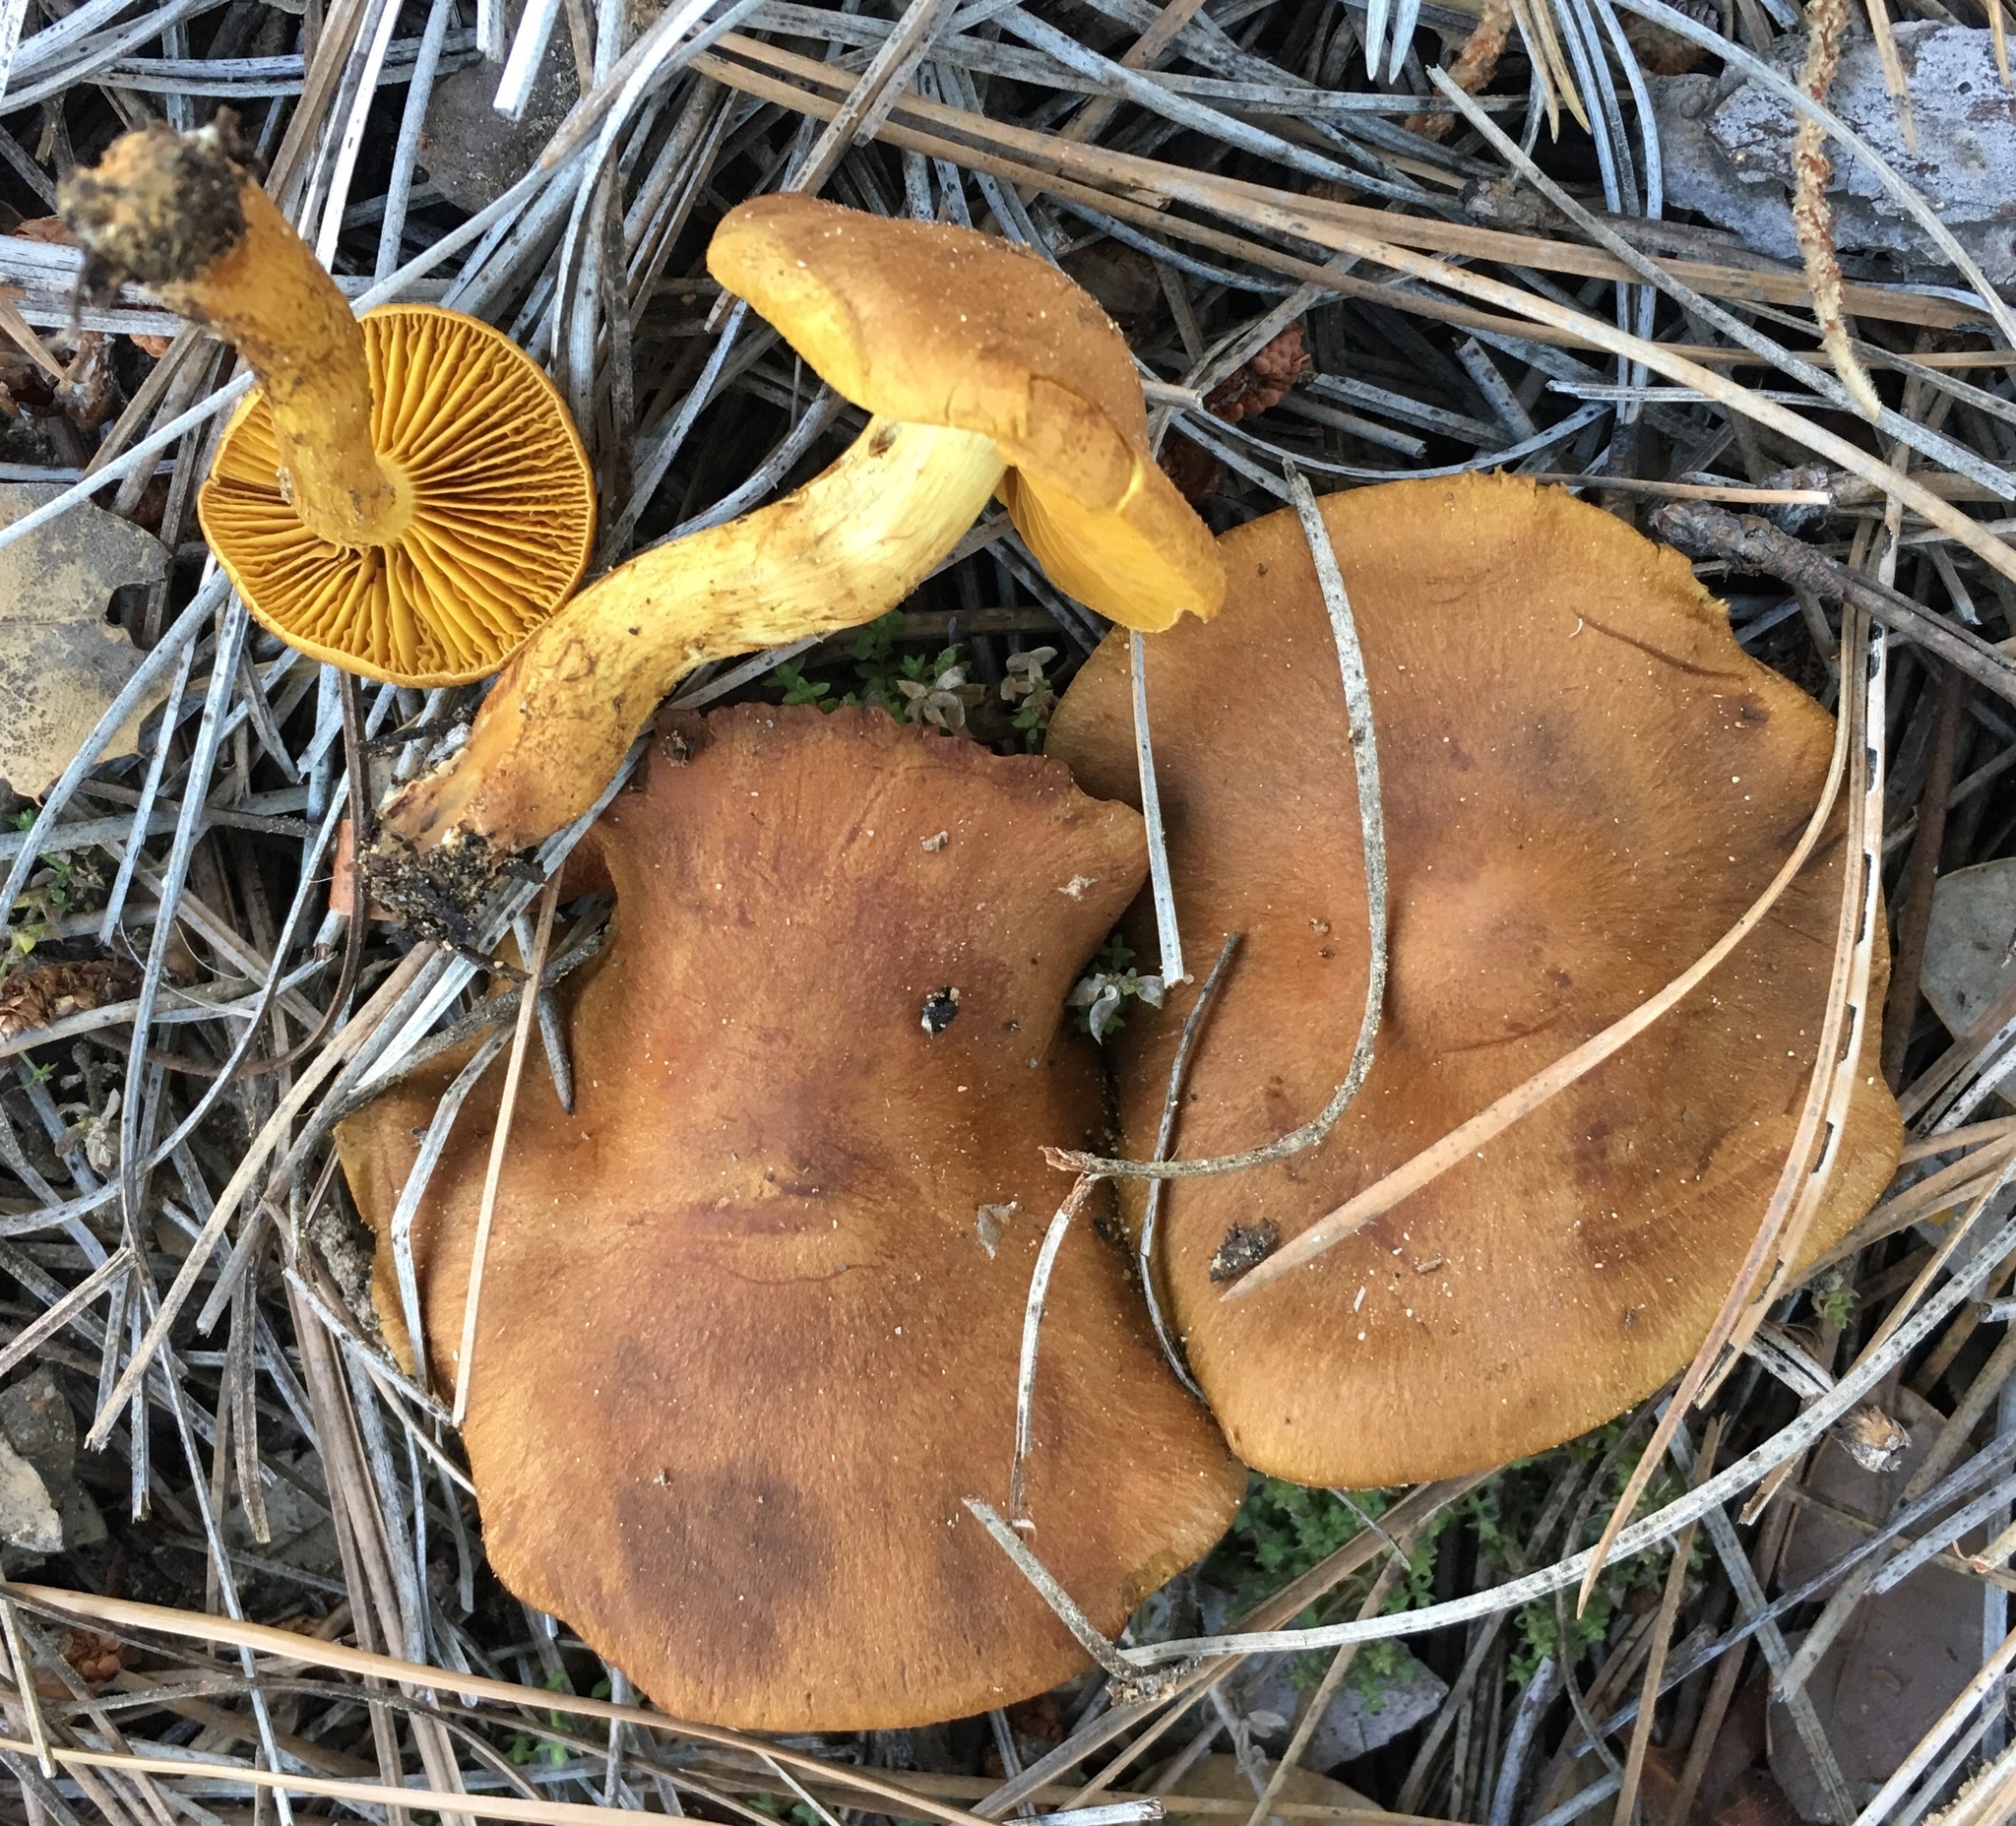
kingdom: Fungi
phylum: Basidiomycota
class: Agaricomycetes
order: Agaricales
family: Cortinariaceae
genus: Cortinarius
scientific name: Cortinarius thiersii
